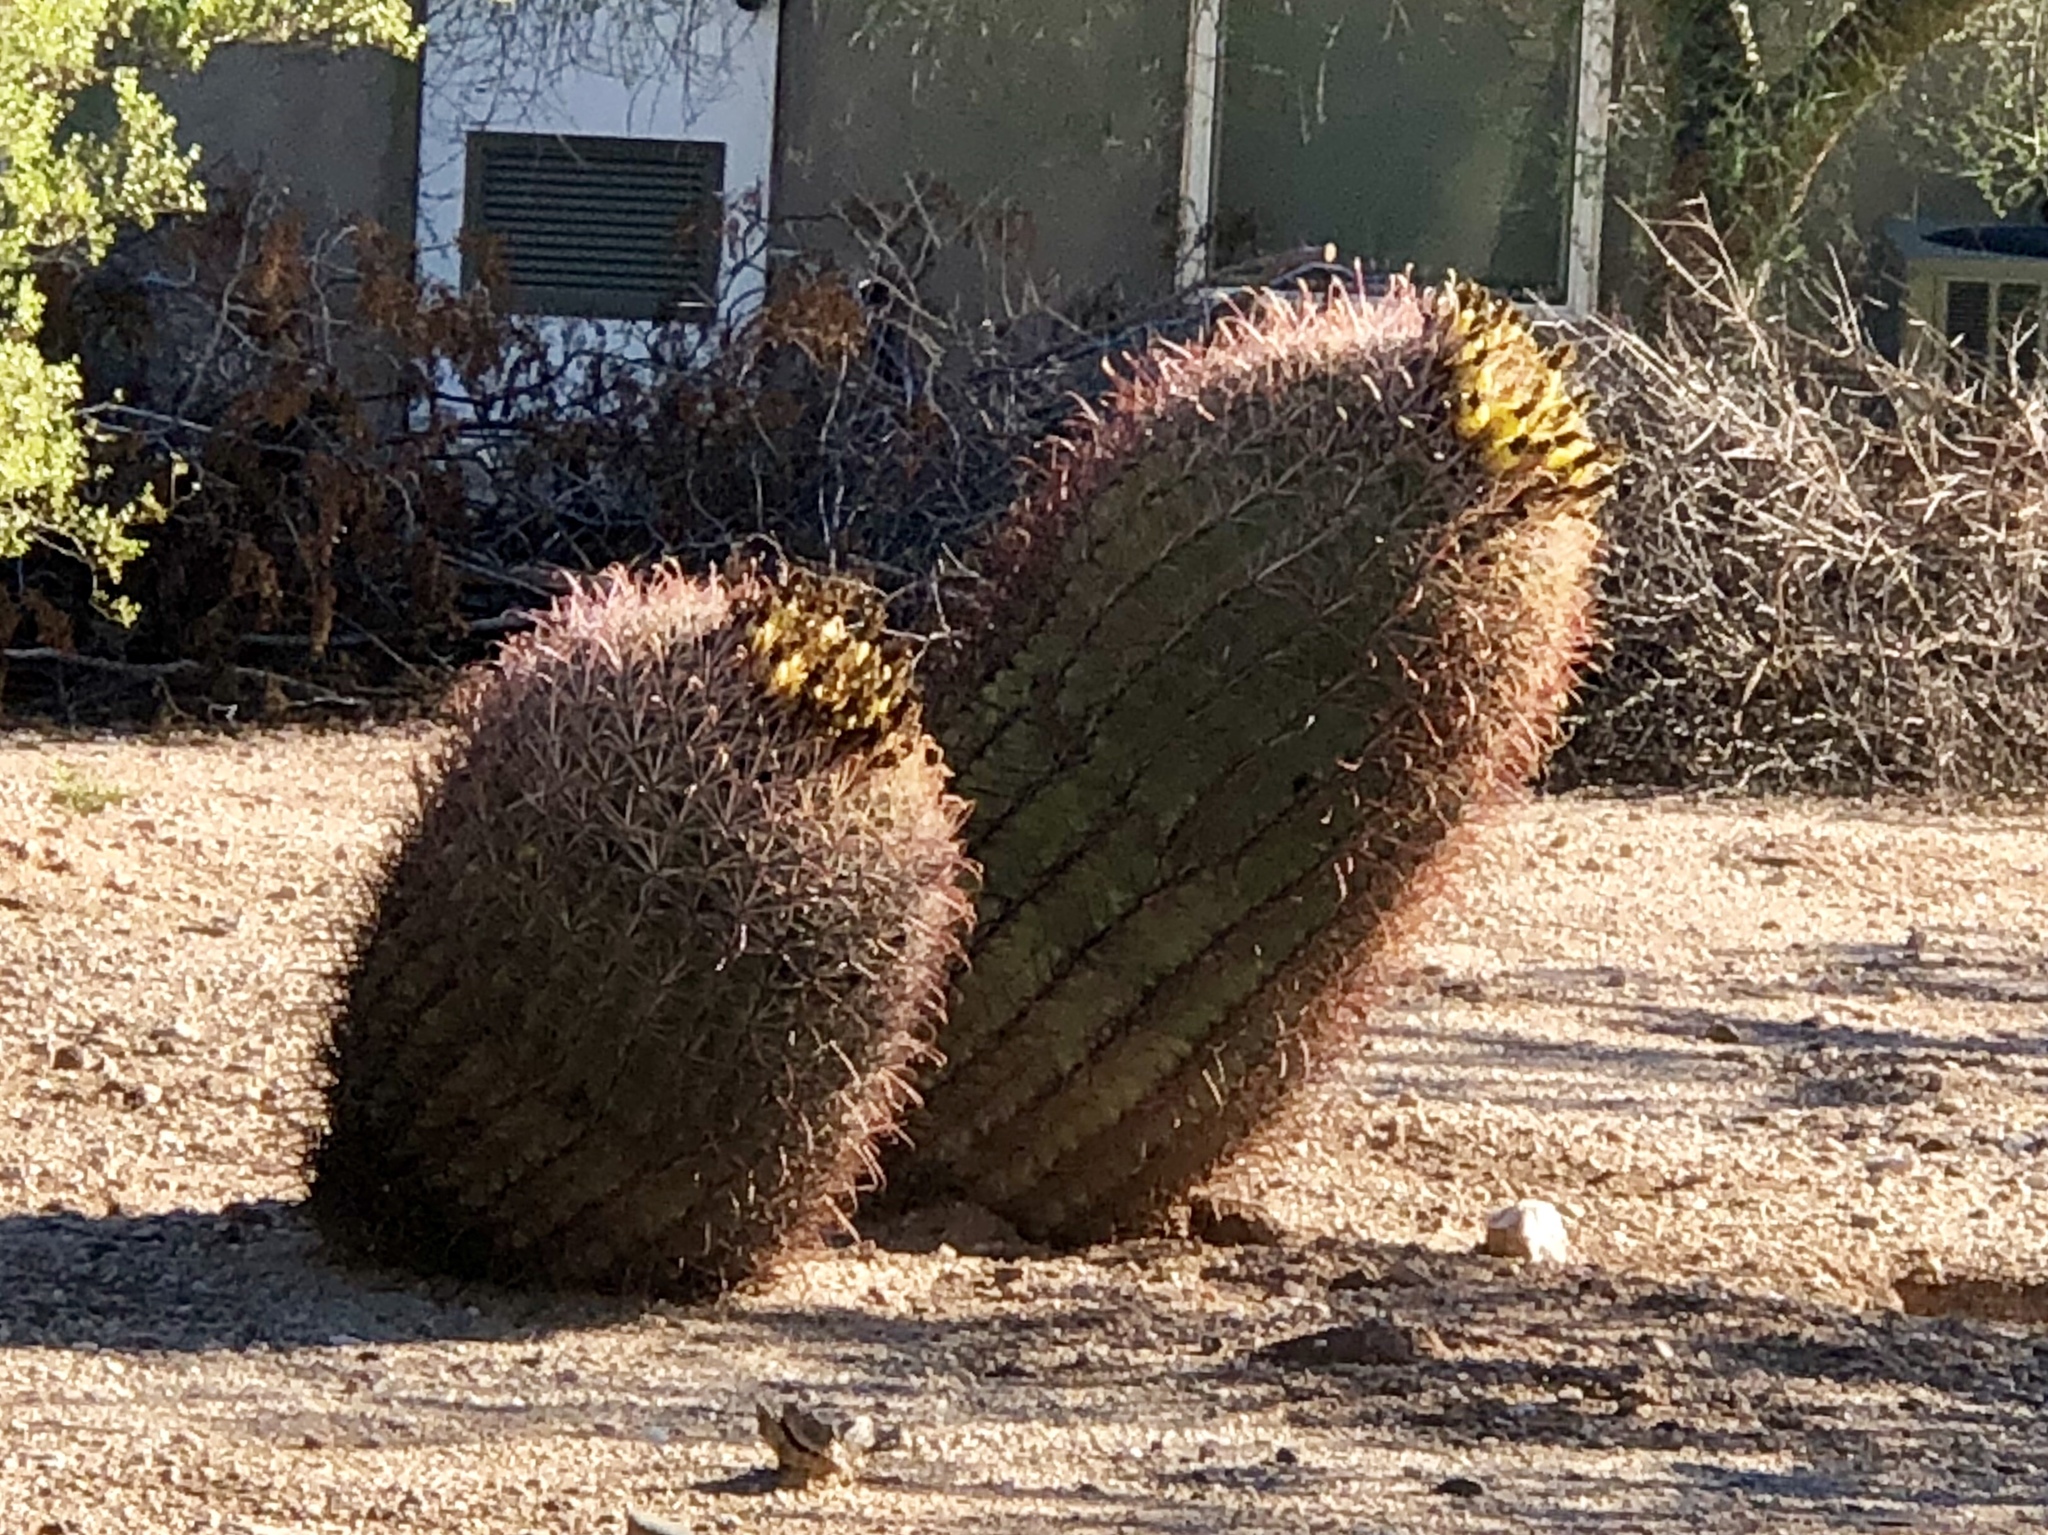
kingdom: Plantae
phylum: Tracheophyta
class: Magnoliopsida
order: Caryophyllales
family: Cactaceae
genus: Ferocactus
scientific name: Ferocactus wislizeni
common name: Candy barrel cactus
